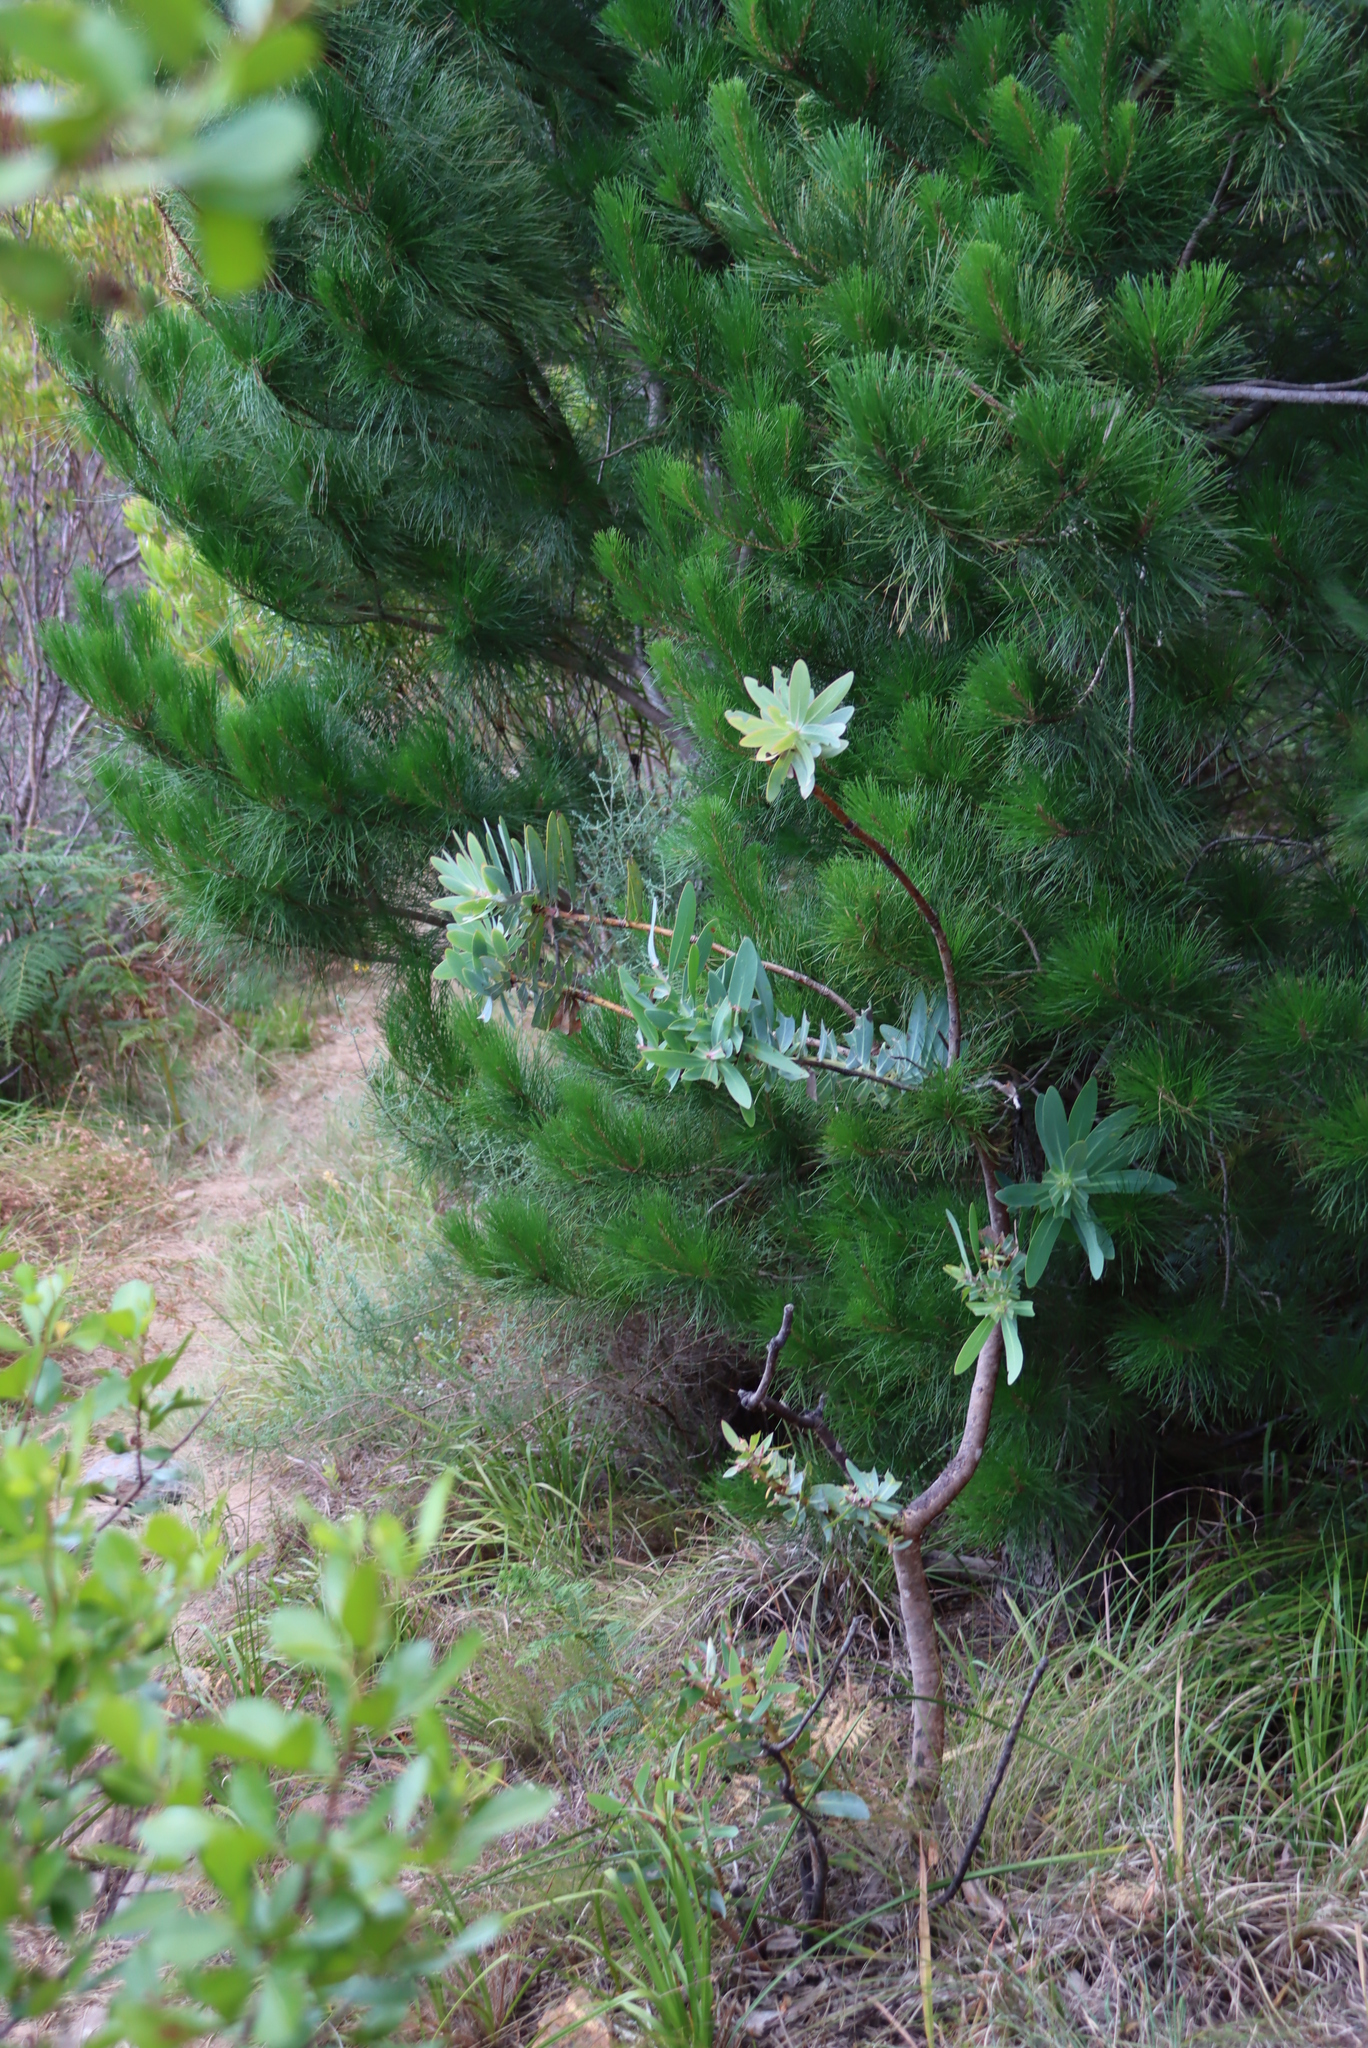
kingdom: Plantae
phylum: Tracheophyta
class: Magnoliopsida
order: Proteales
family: Proteaceae
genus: Protea
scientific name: Protea nitida
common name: Tree protea
